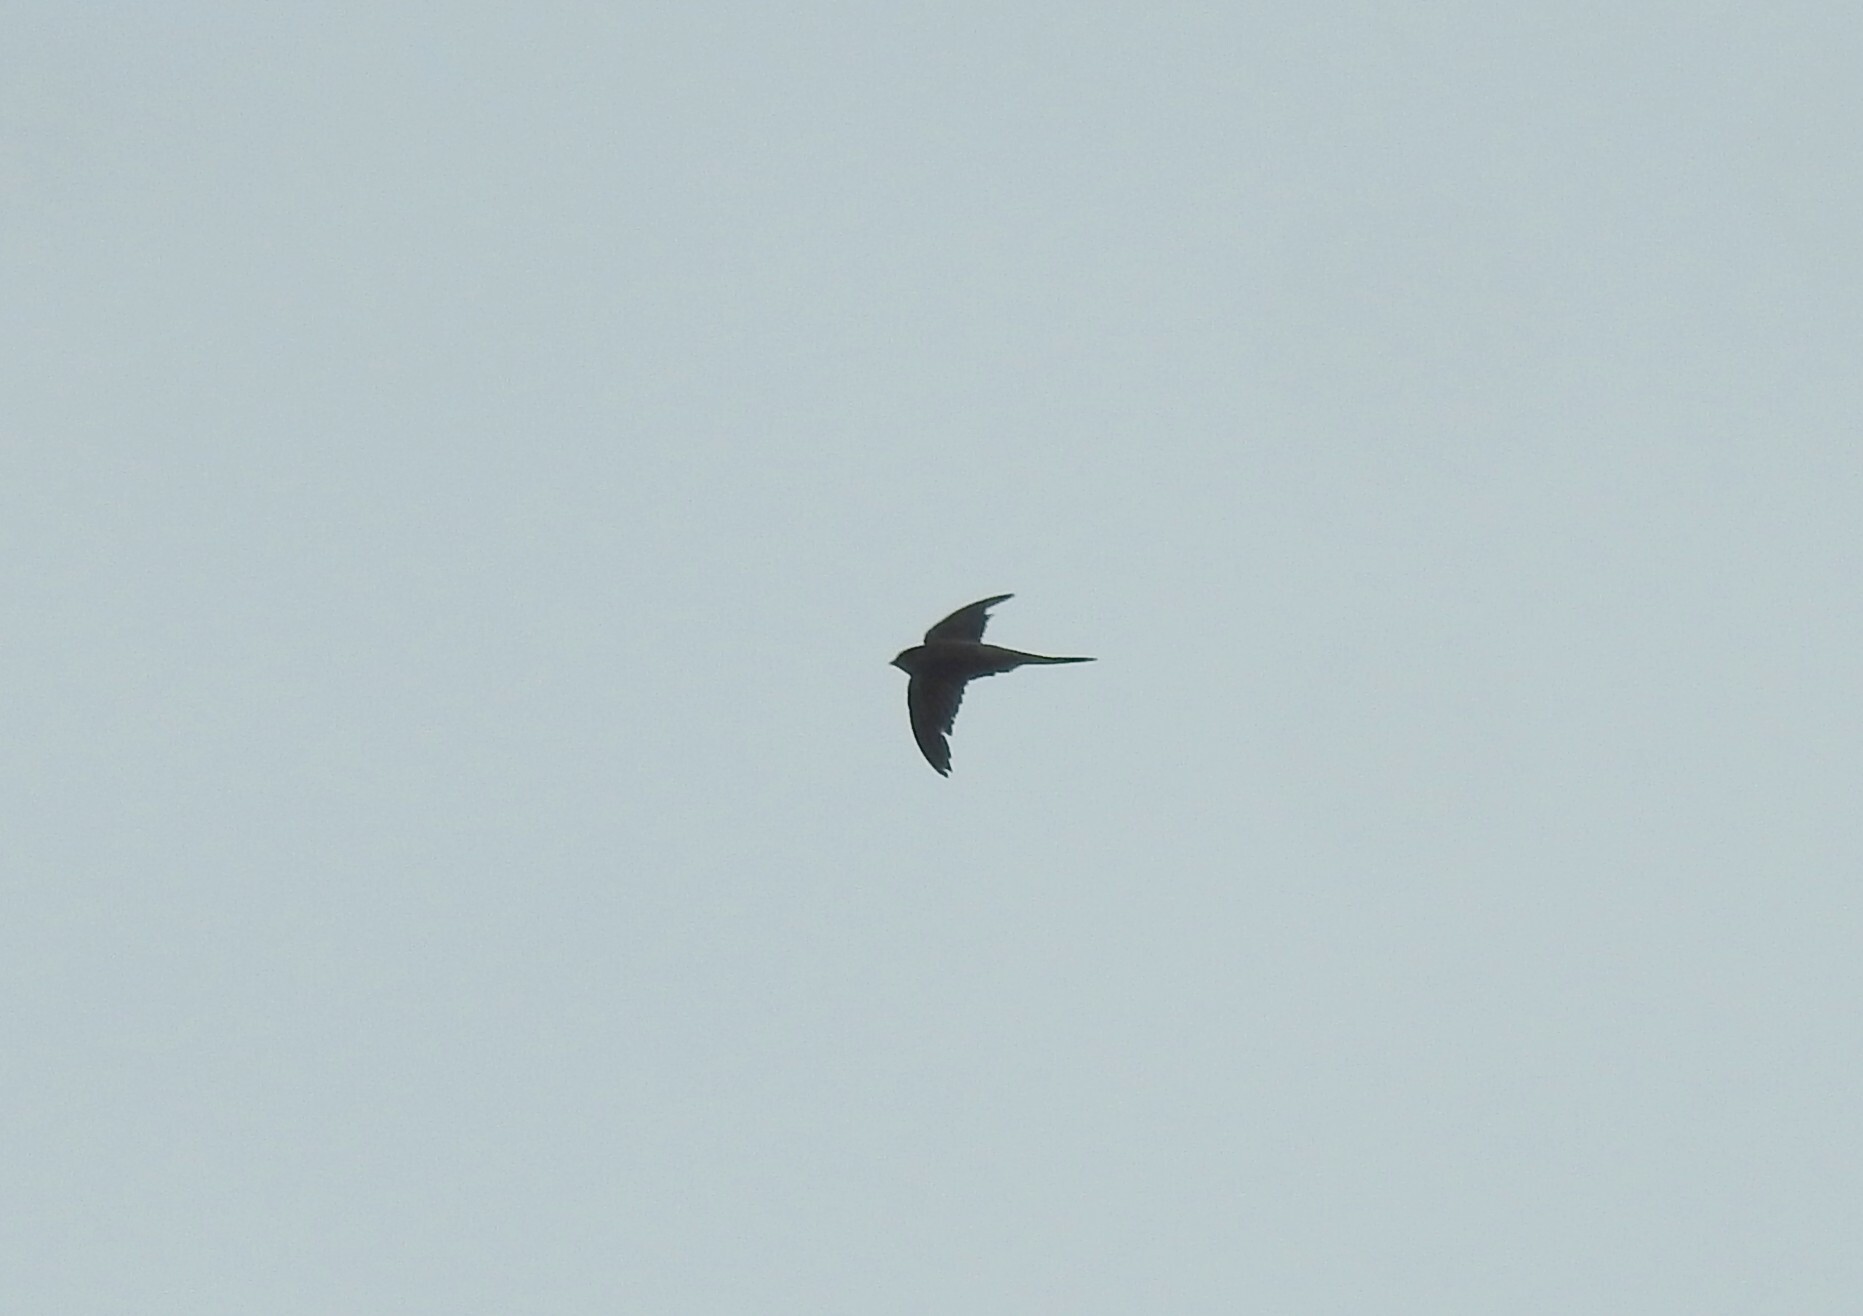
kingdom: Animalia
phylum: Chordata
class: Aves
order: Apodiformes
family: Apodidae
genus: Cypsiurus
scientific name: Cypsiurus balasiensis
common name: Asian palm swift
